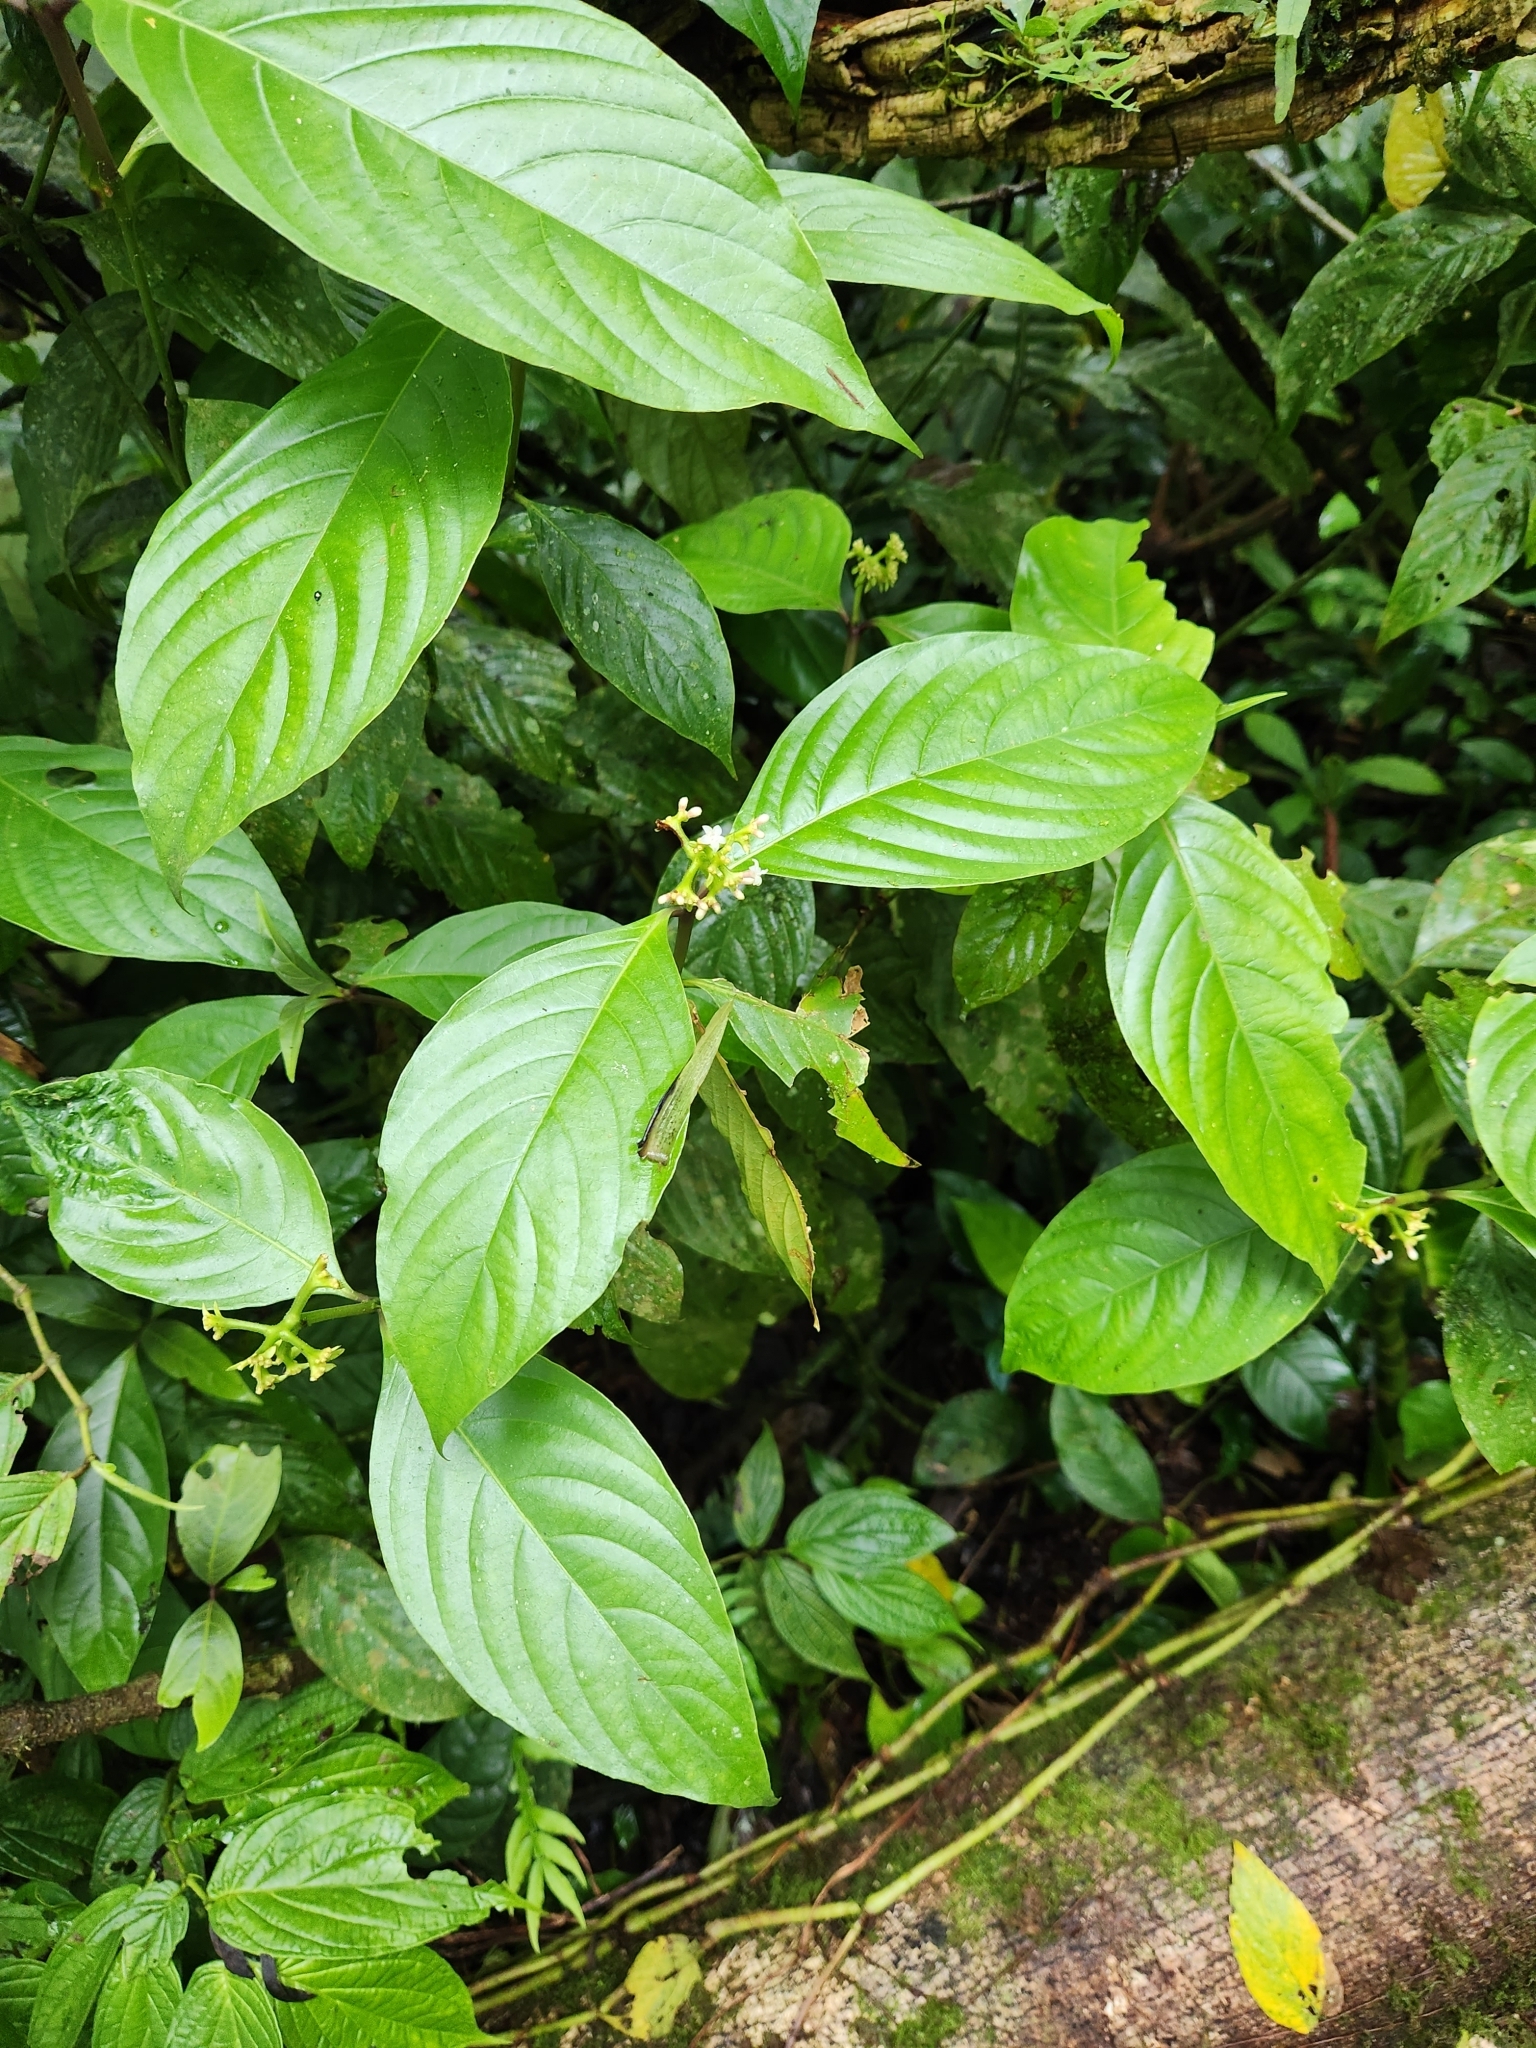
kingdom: Plantae
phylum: Tracheophyta
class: Magnoliopsida
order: Gentianales
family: Rubiaceae
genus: Palicourea
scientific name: Palicourea winkleri
